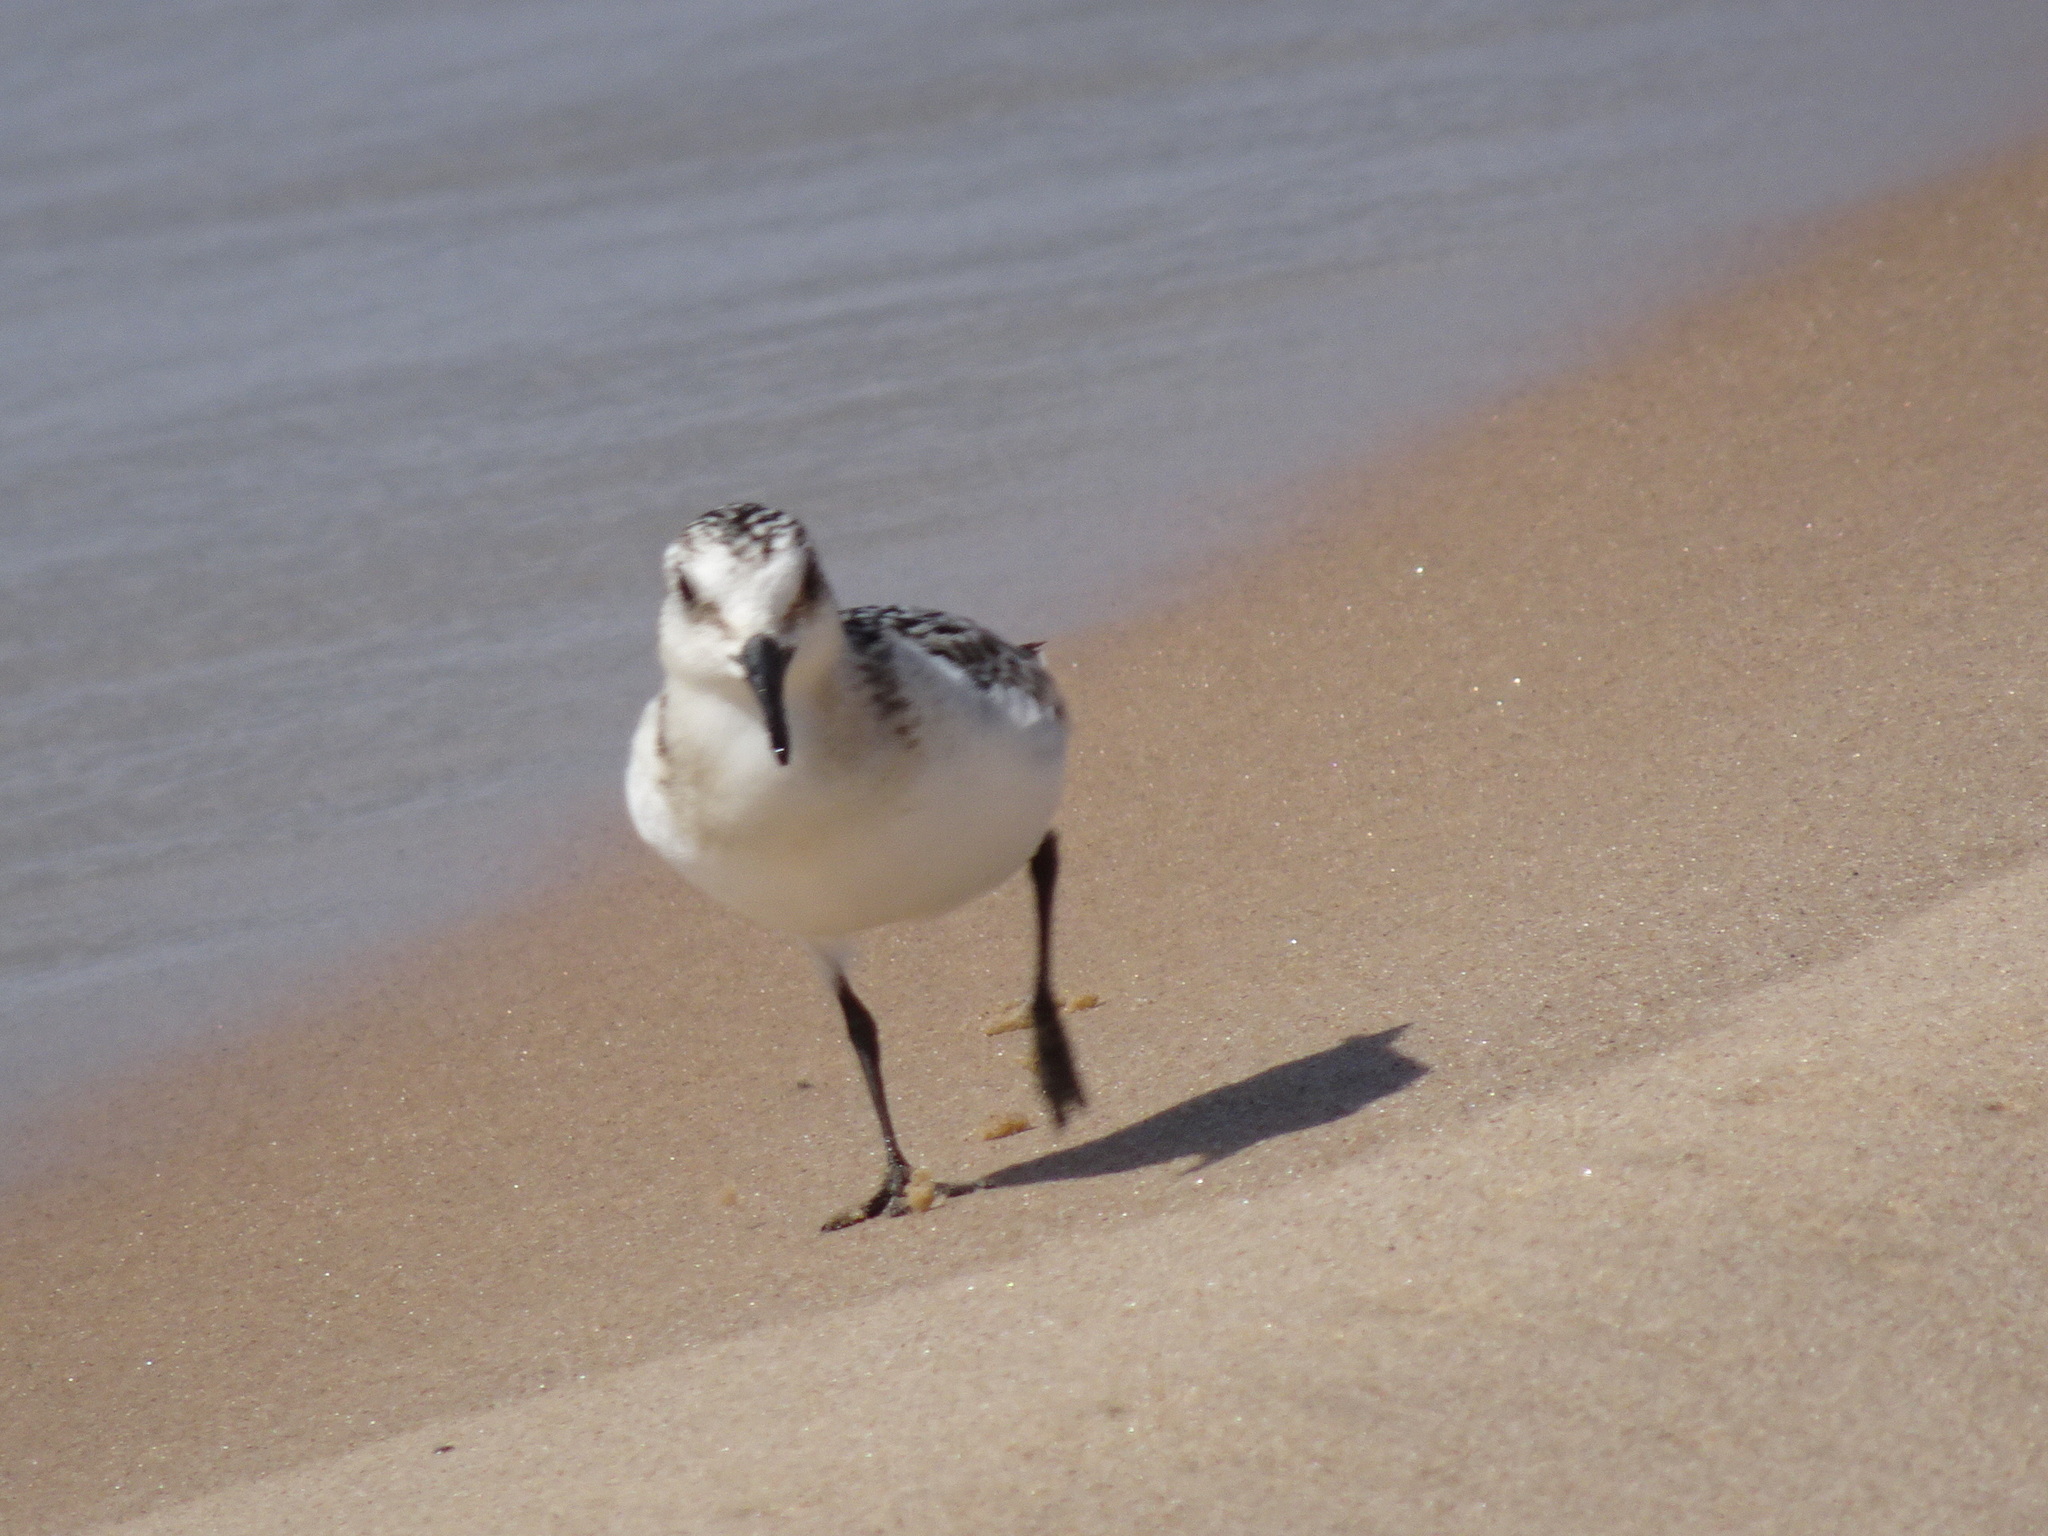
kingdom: Animalia
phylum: Chordata
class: Aves
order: Charadriiformes
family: Scolopacidae
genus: Calidris
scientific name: Calidris alba
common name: Sanderling
